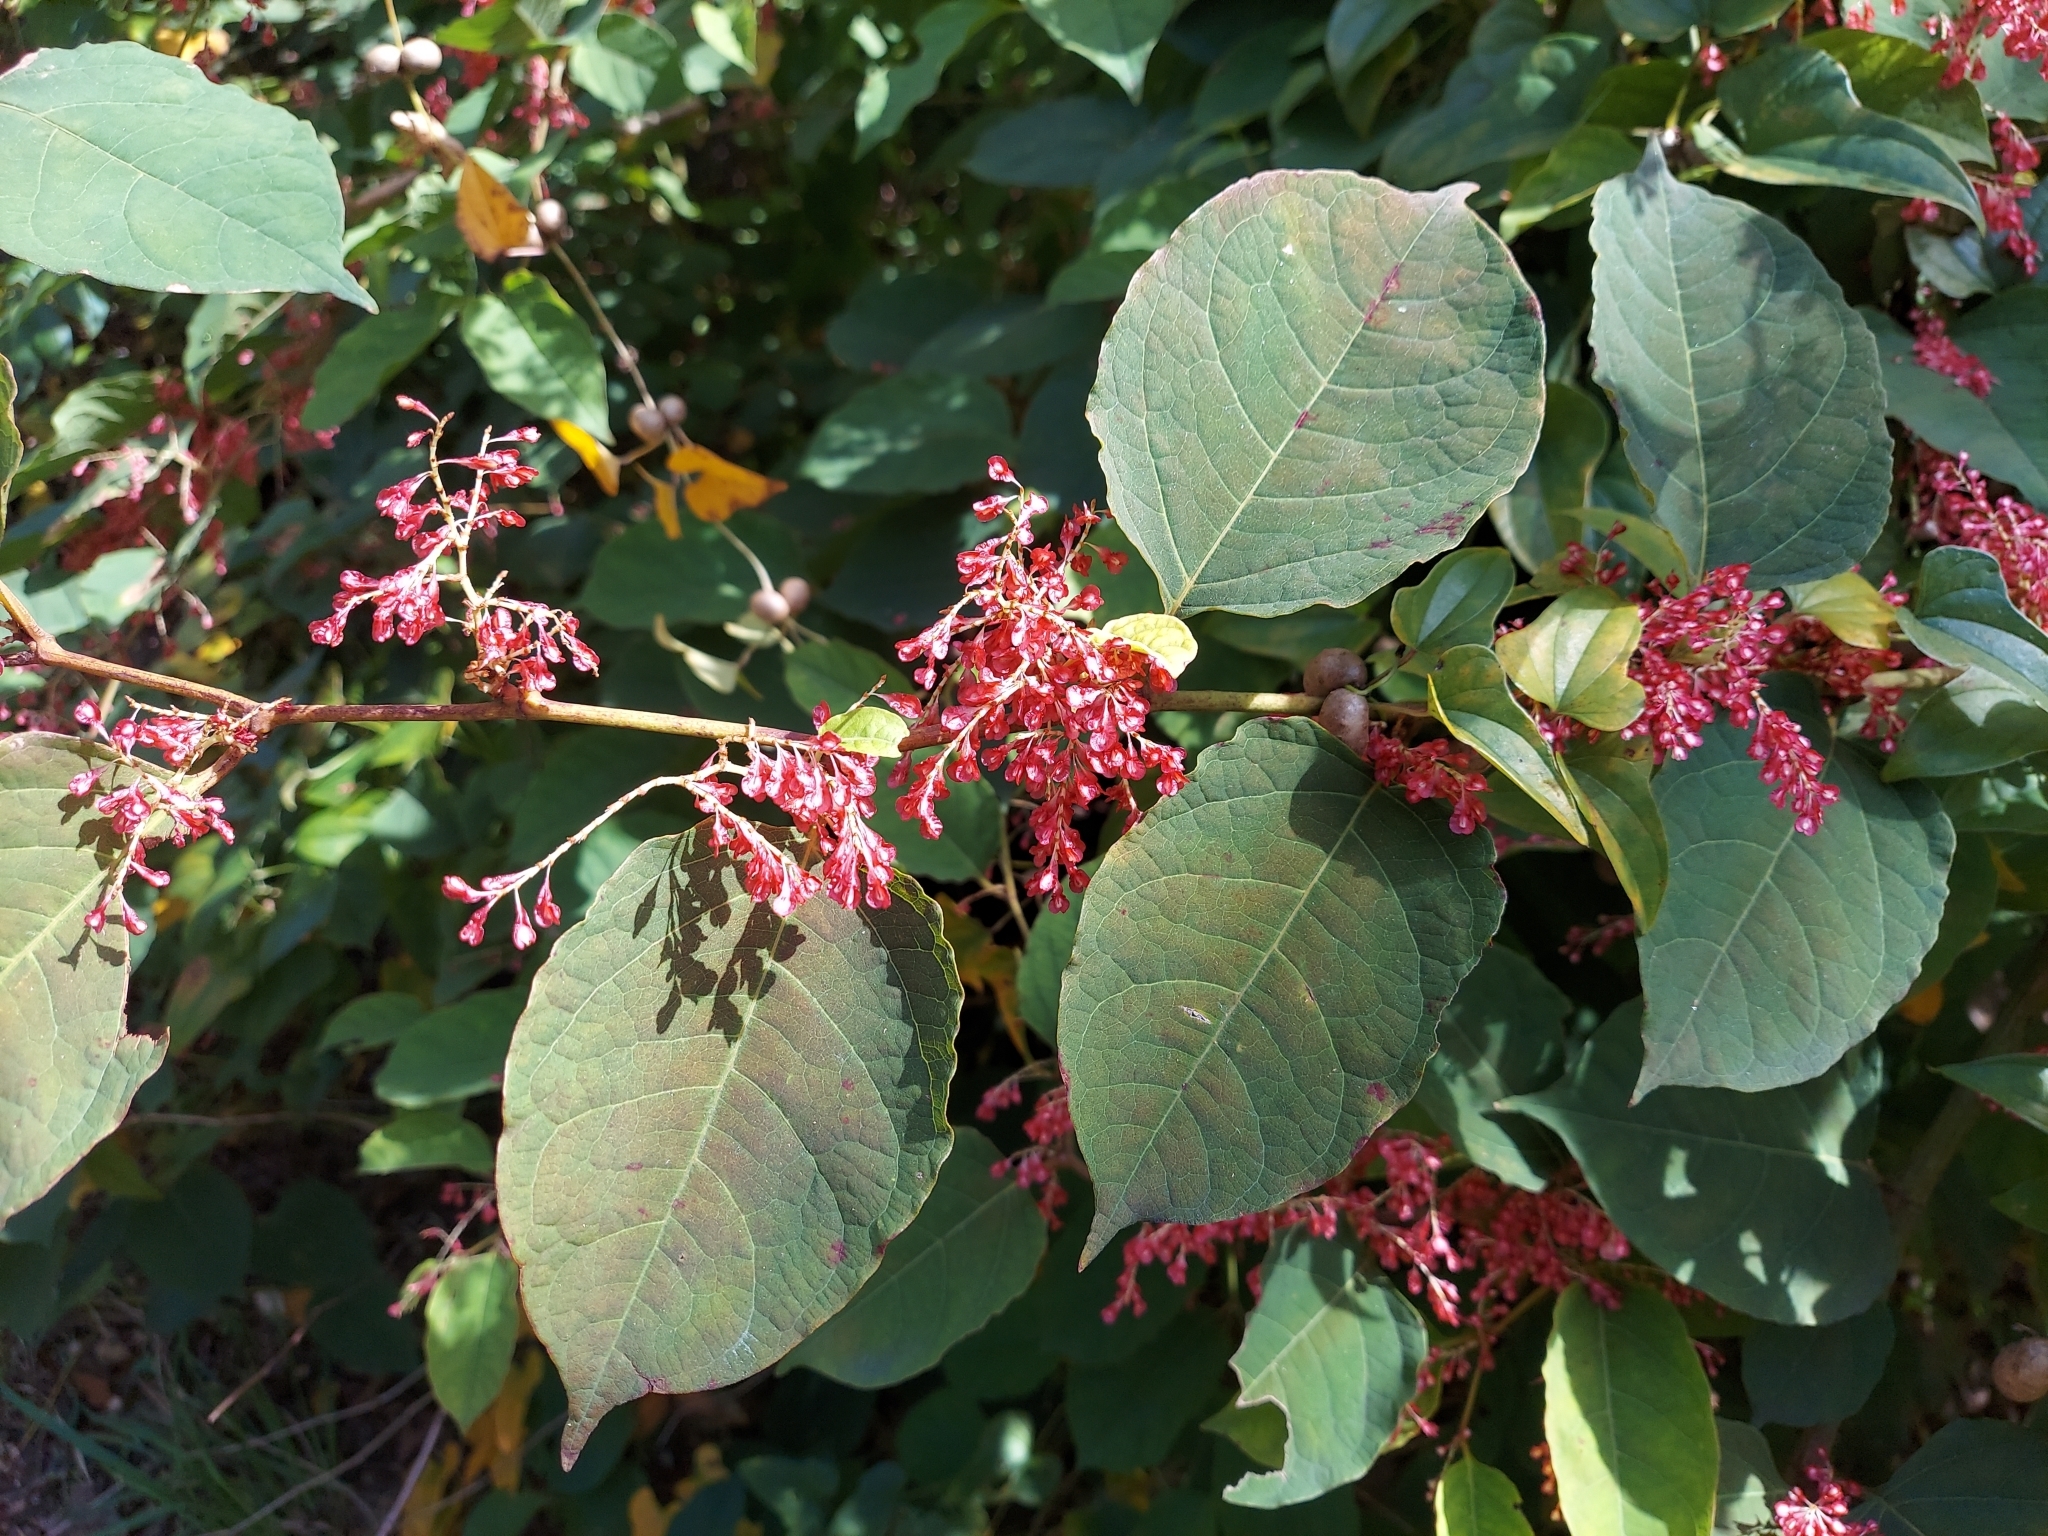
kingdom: Plantae
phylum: Tracheophyta
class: Magnoliopsida
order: Caryophyllales
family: Polygonaceae
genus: Reynoutria
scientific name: Reynoutria japonica
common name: Japanese knotweed
